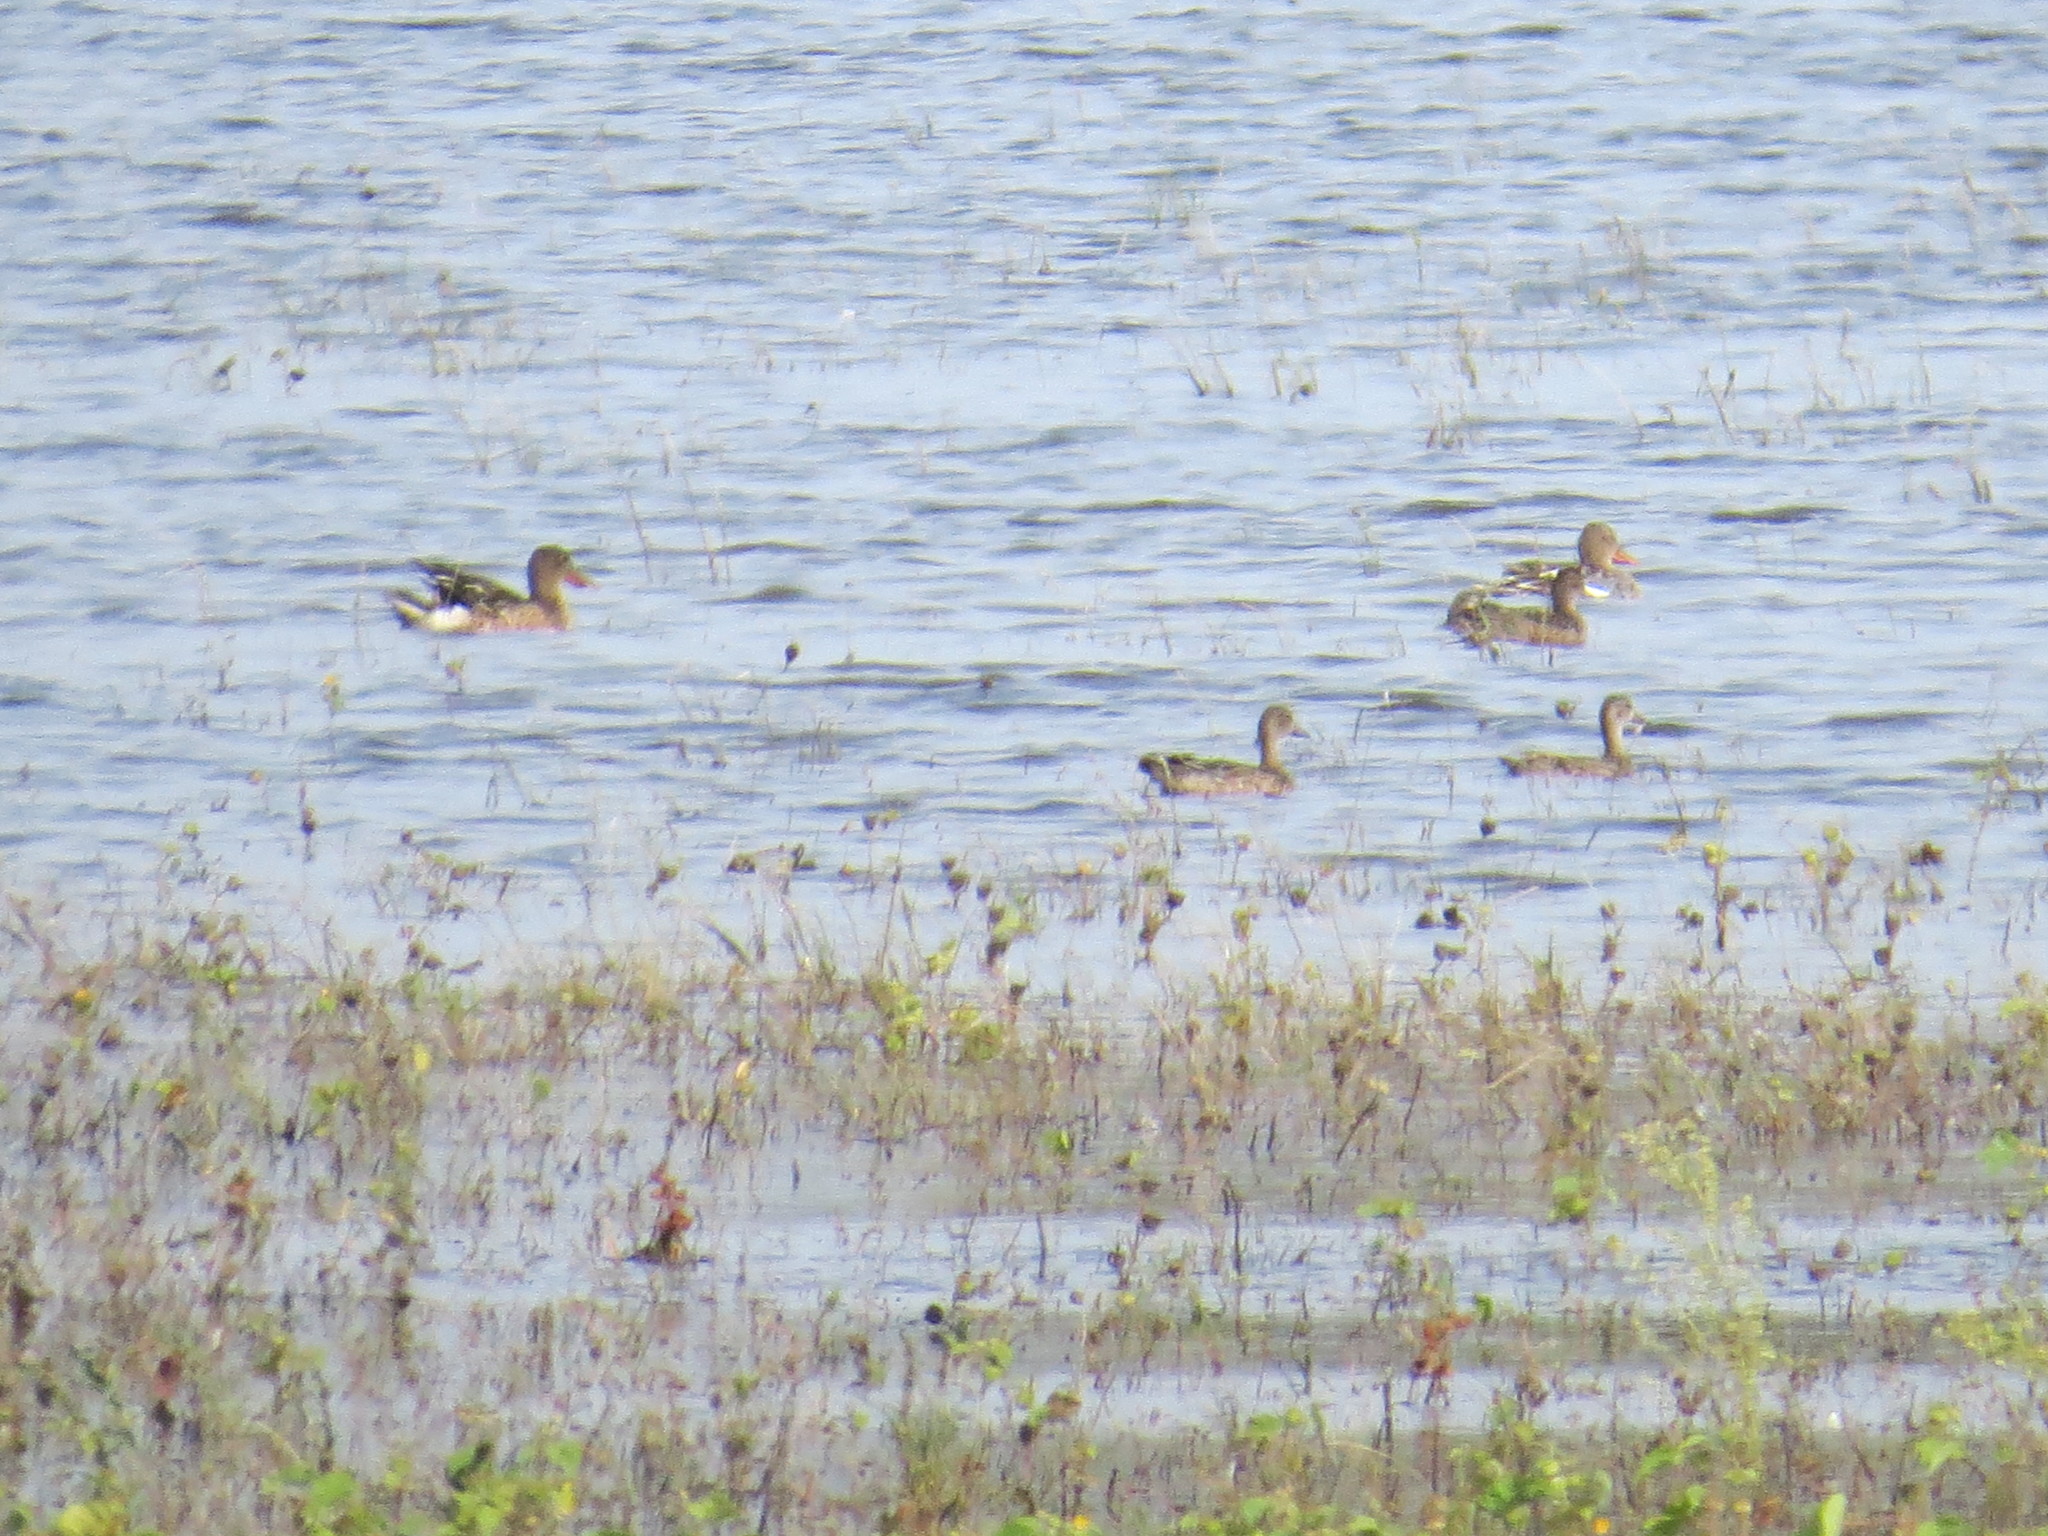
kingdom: Animalia
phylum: Chordata
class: Aves
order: Anseriformes
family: Anatidae
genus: Spatula
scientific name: Spatula clypeata
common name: Northern shoveler
